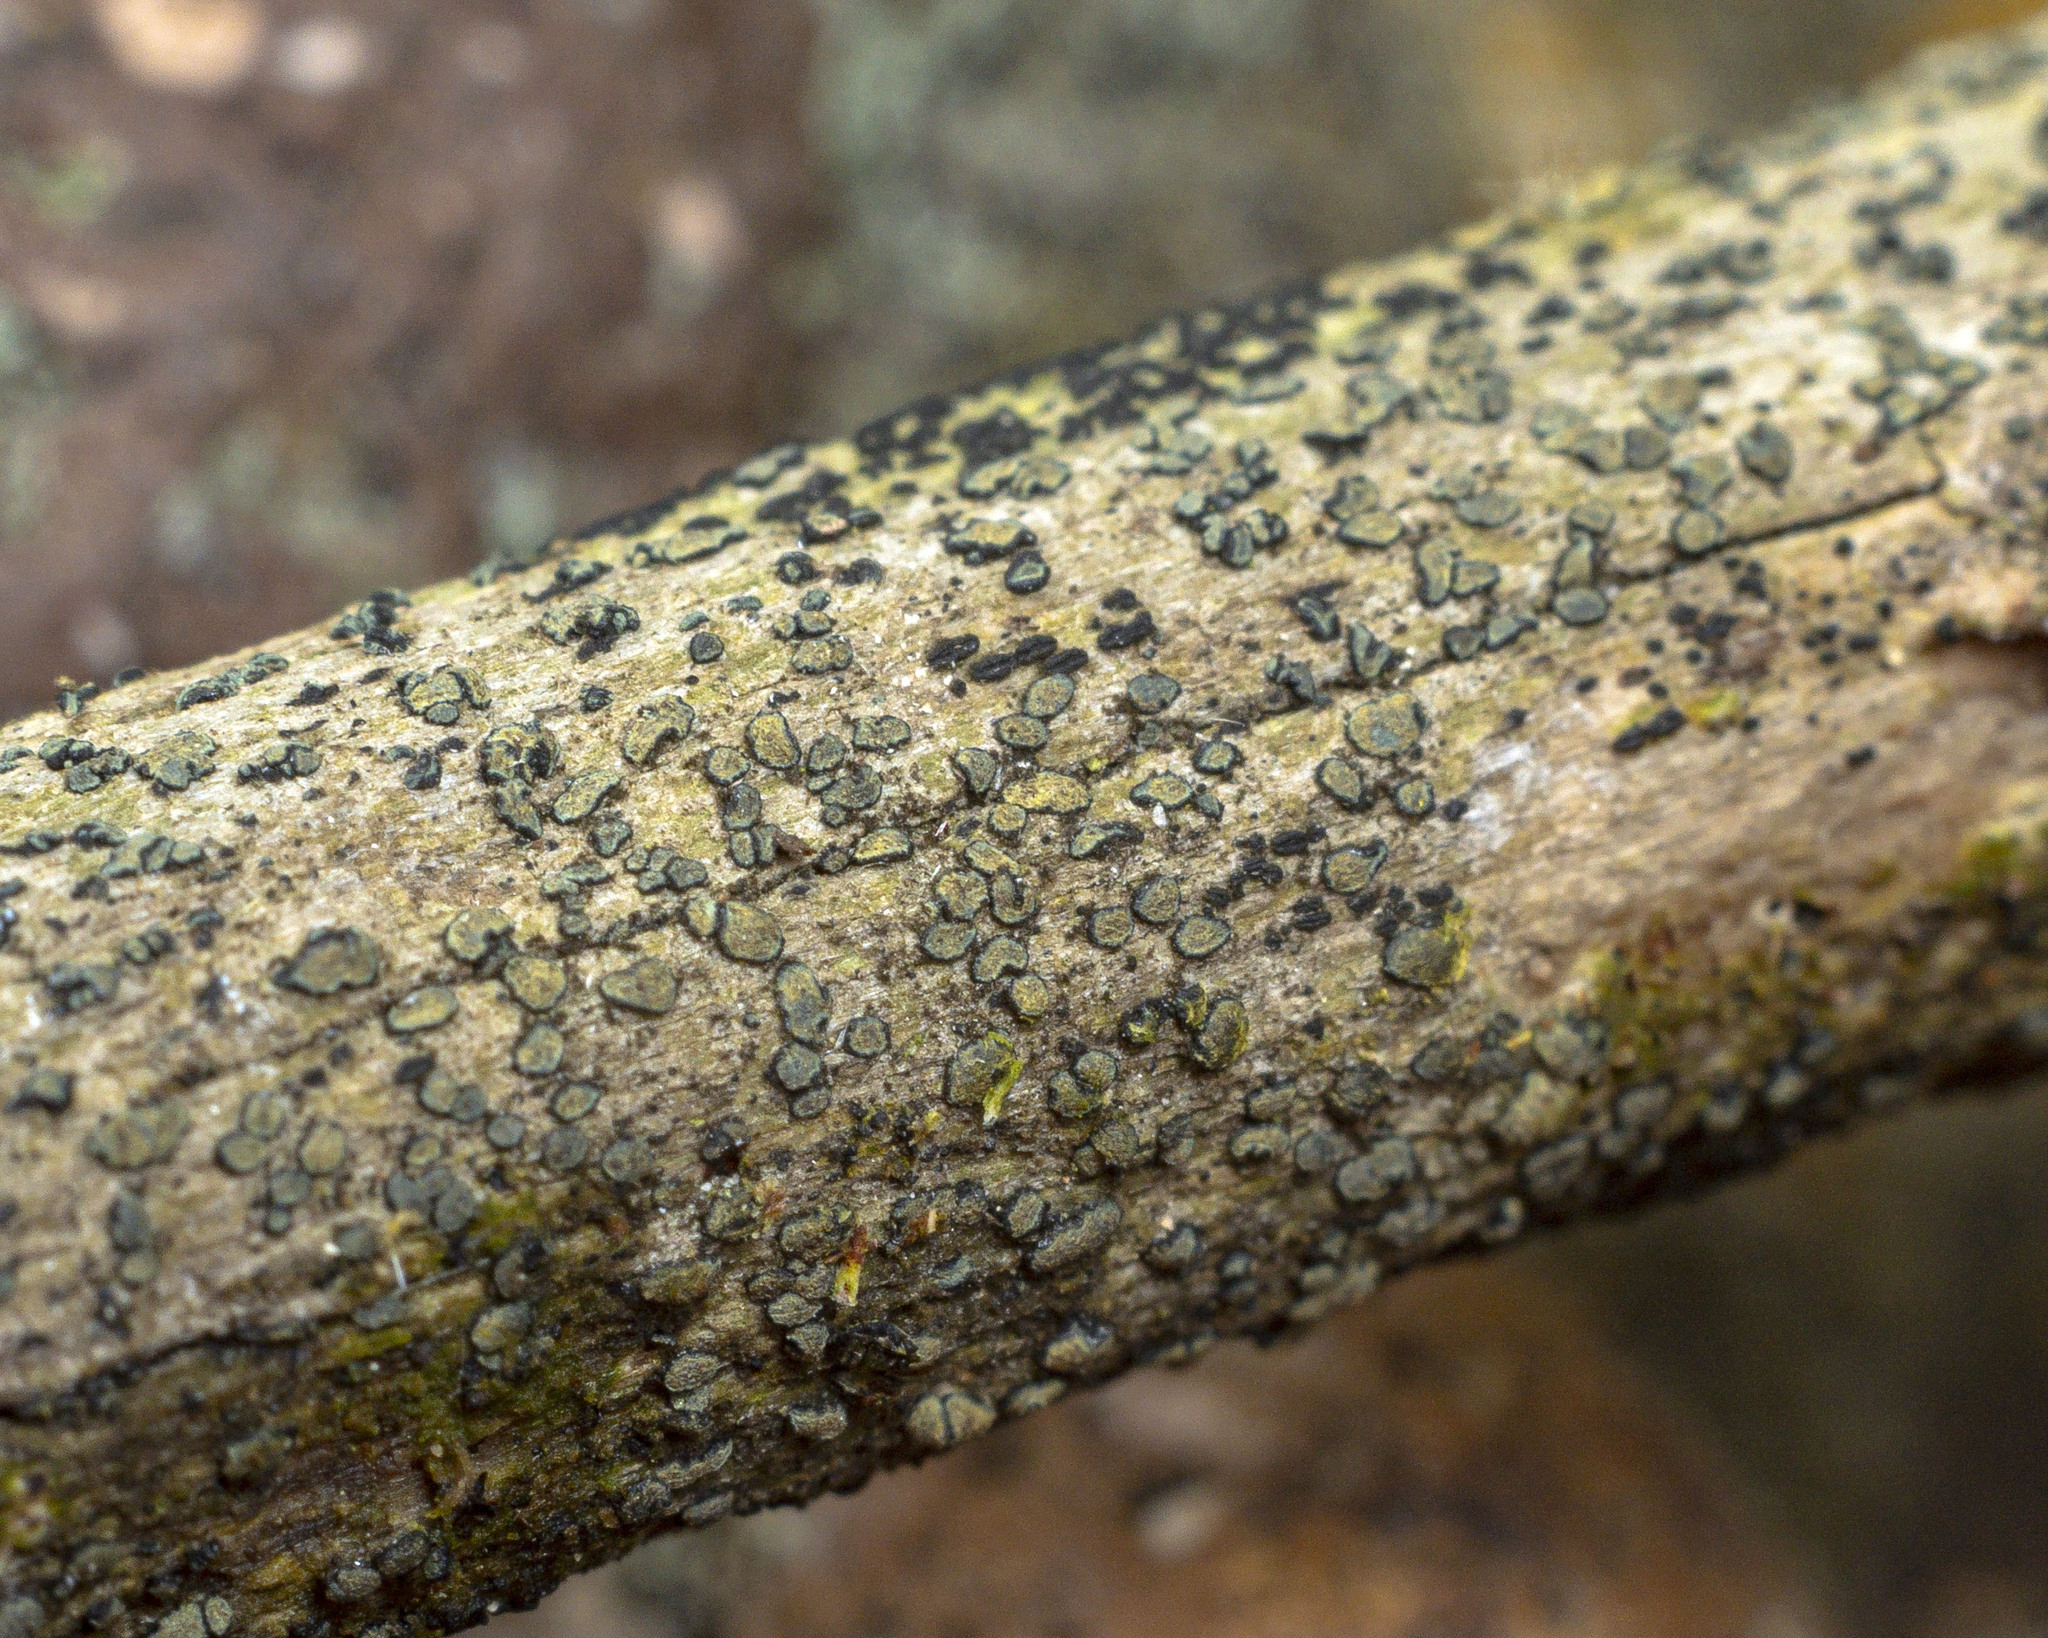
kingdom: Fungi
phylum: Ascomycota
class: Arthoniomycetes
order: Arthoniales
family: Lecanographaceae
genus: Alyxoria
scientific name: Alyxoria varia
